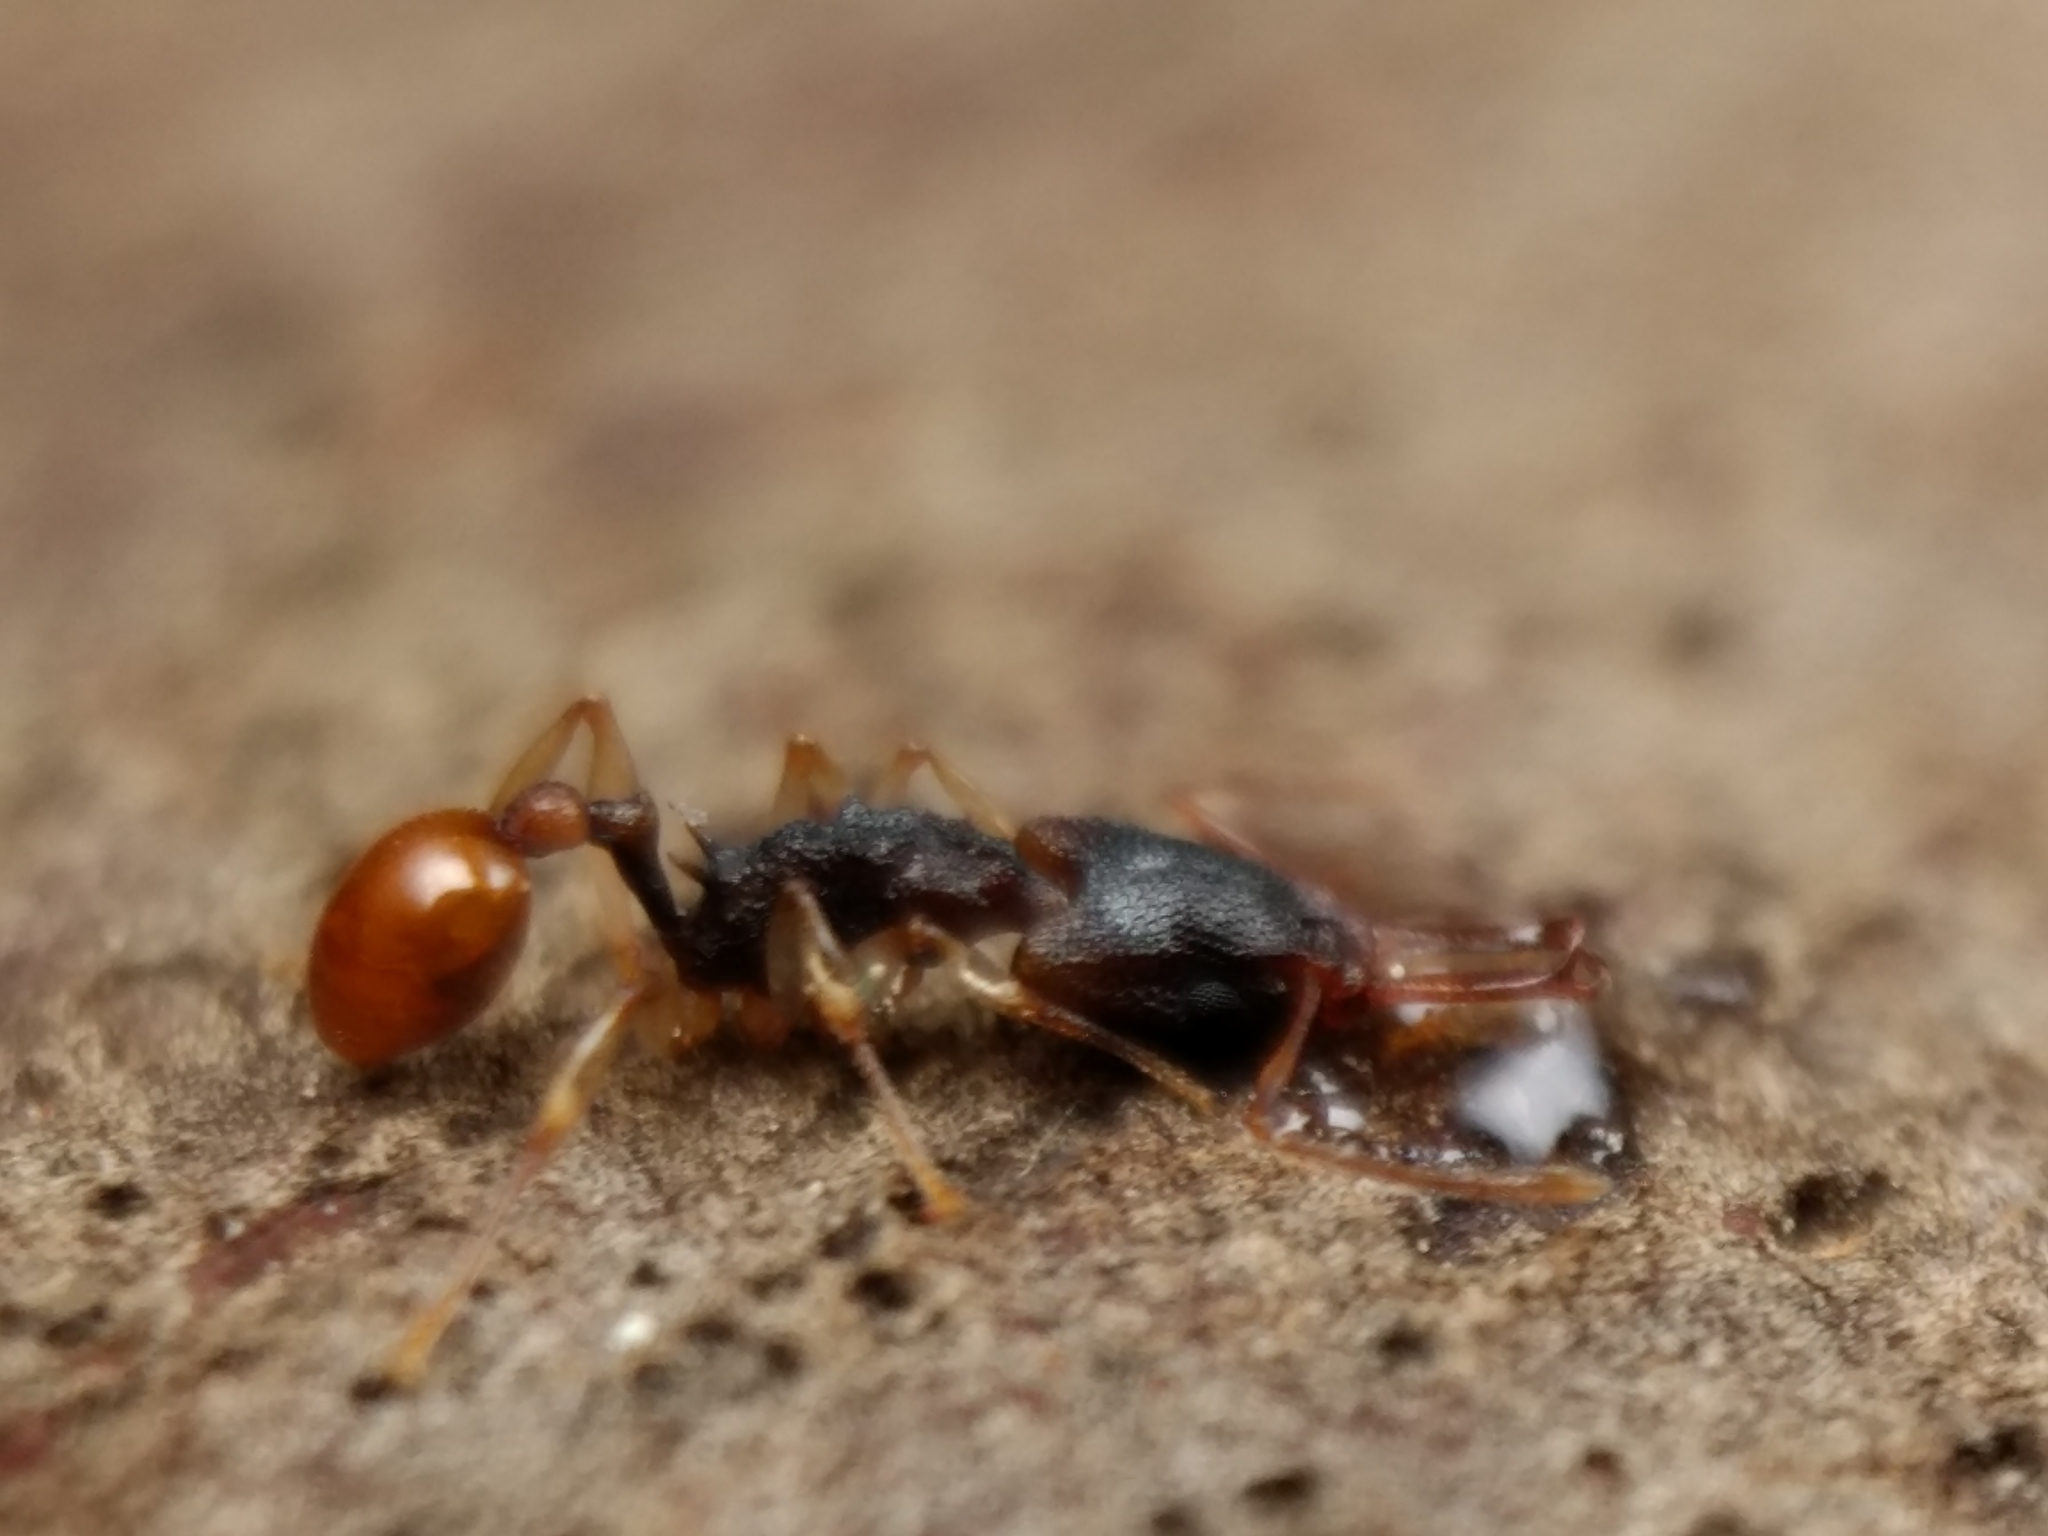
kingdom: Animalia
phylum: Arthropoda
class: Insecta
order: Hymenoptera
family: Formicidae
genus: Orectognathus
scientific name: Orectognathus mjobergi
